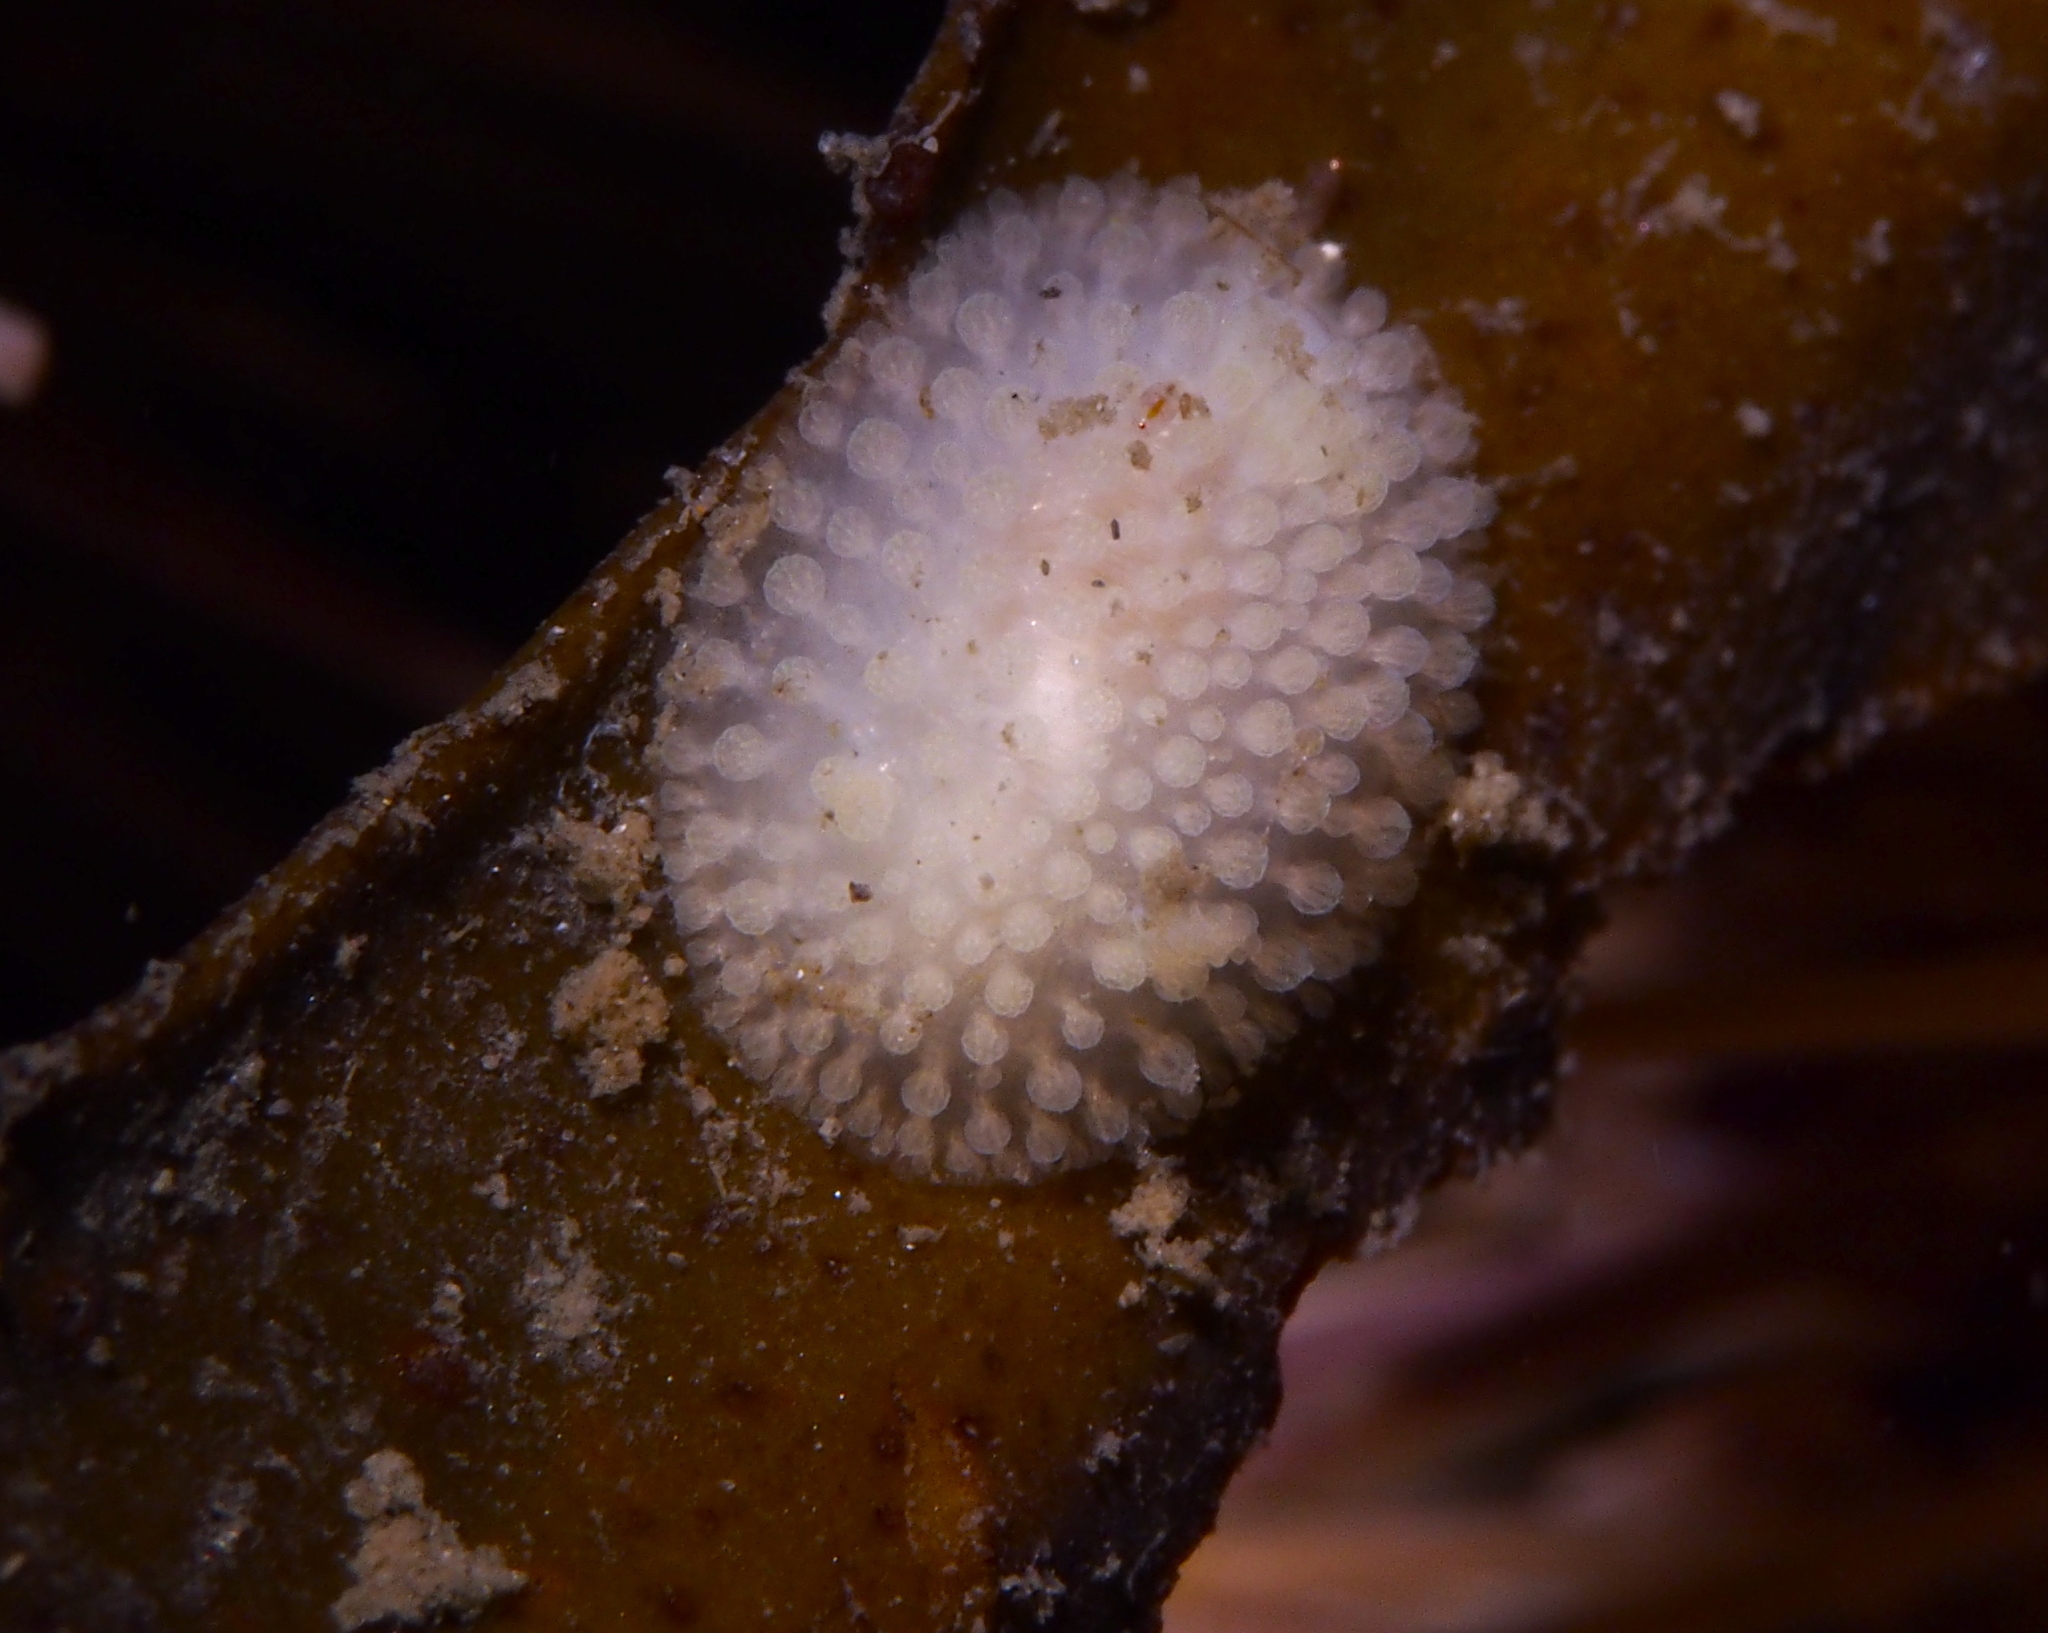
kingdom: Animalia
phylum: Mollusca
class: Gastropoda
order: Nudibranchia
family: Onchidorididae
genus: Onchidoris
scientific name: Onchidoris muricata
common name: Rough doris
